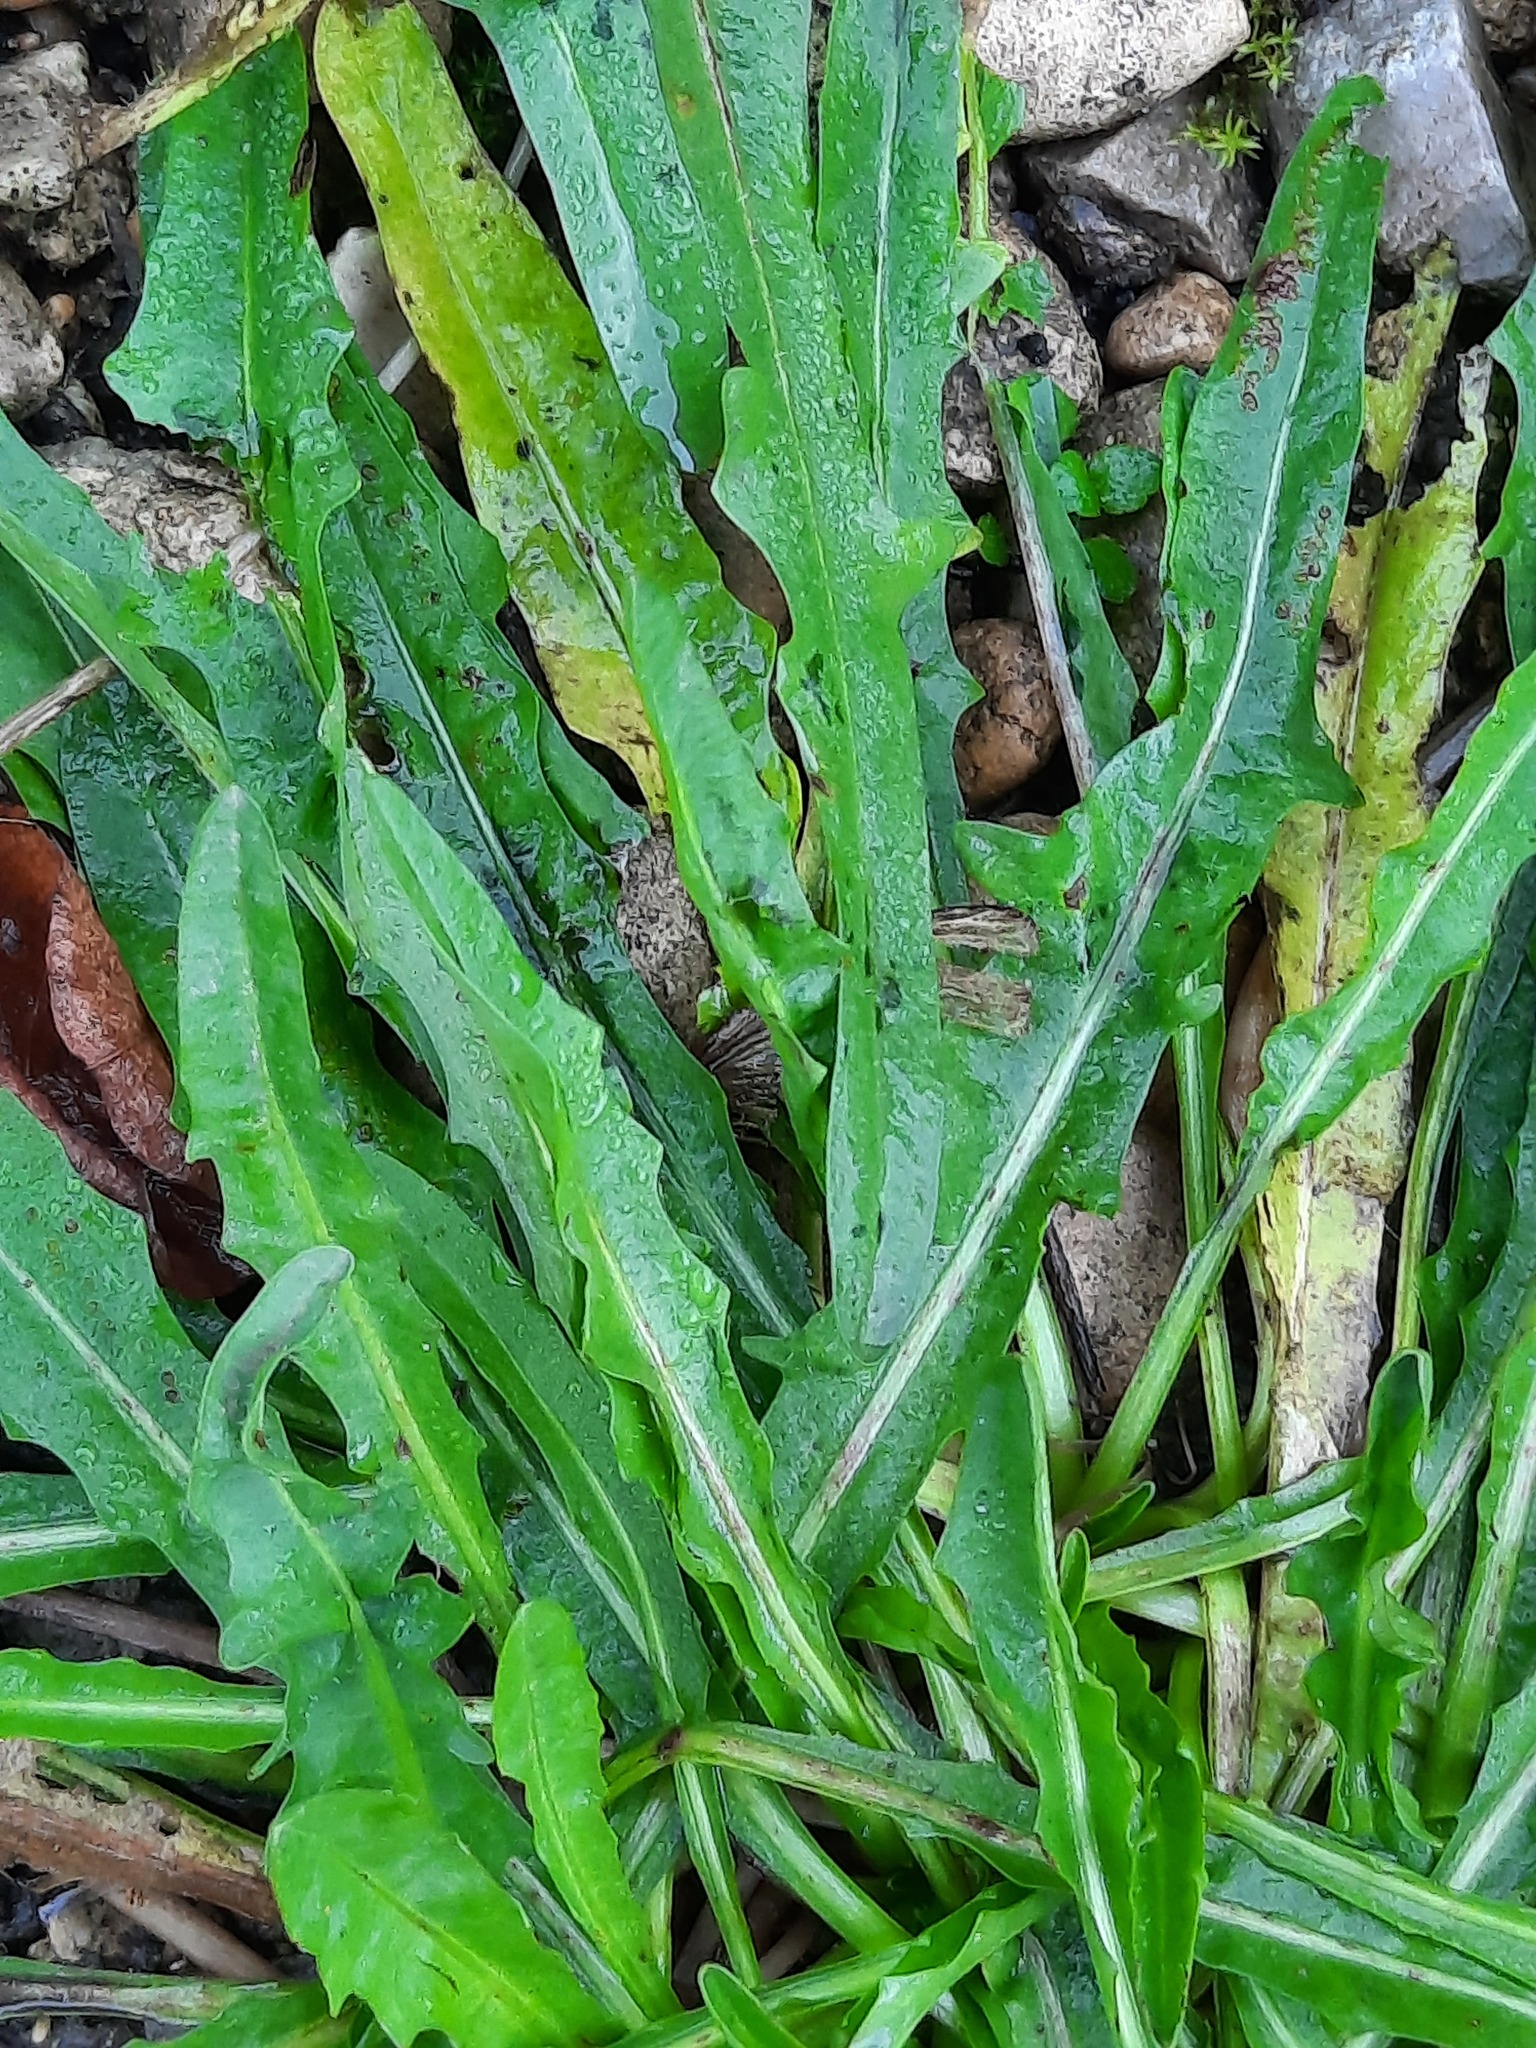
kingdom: Plantae
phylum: Tracheophyta
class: Magnoliopsida
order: Asterales
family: Asteraceae
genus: Scorzoneroides
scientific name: Scorzoneroides autumnalis
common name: Autumn hawkbit
